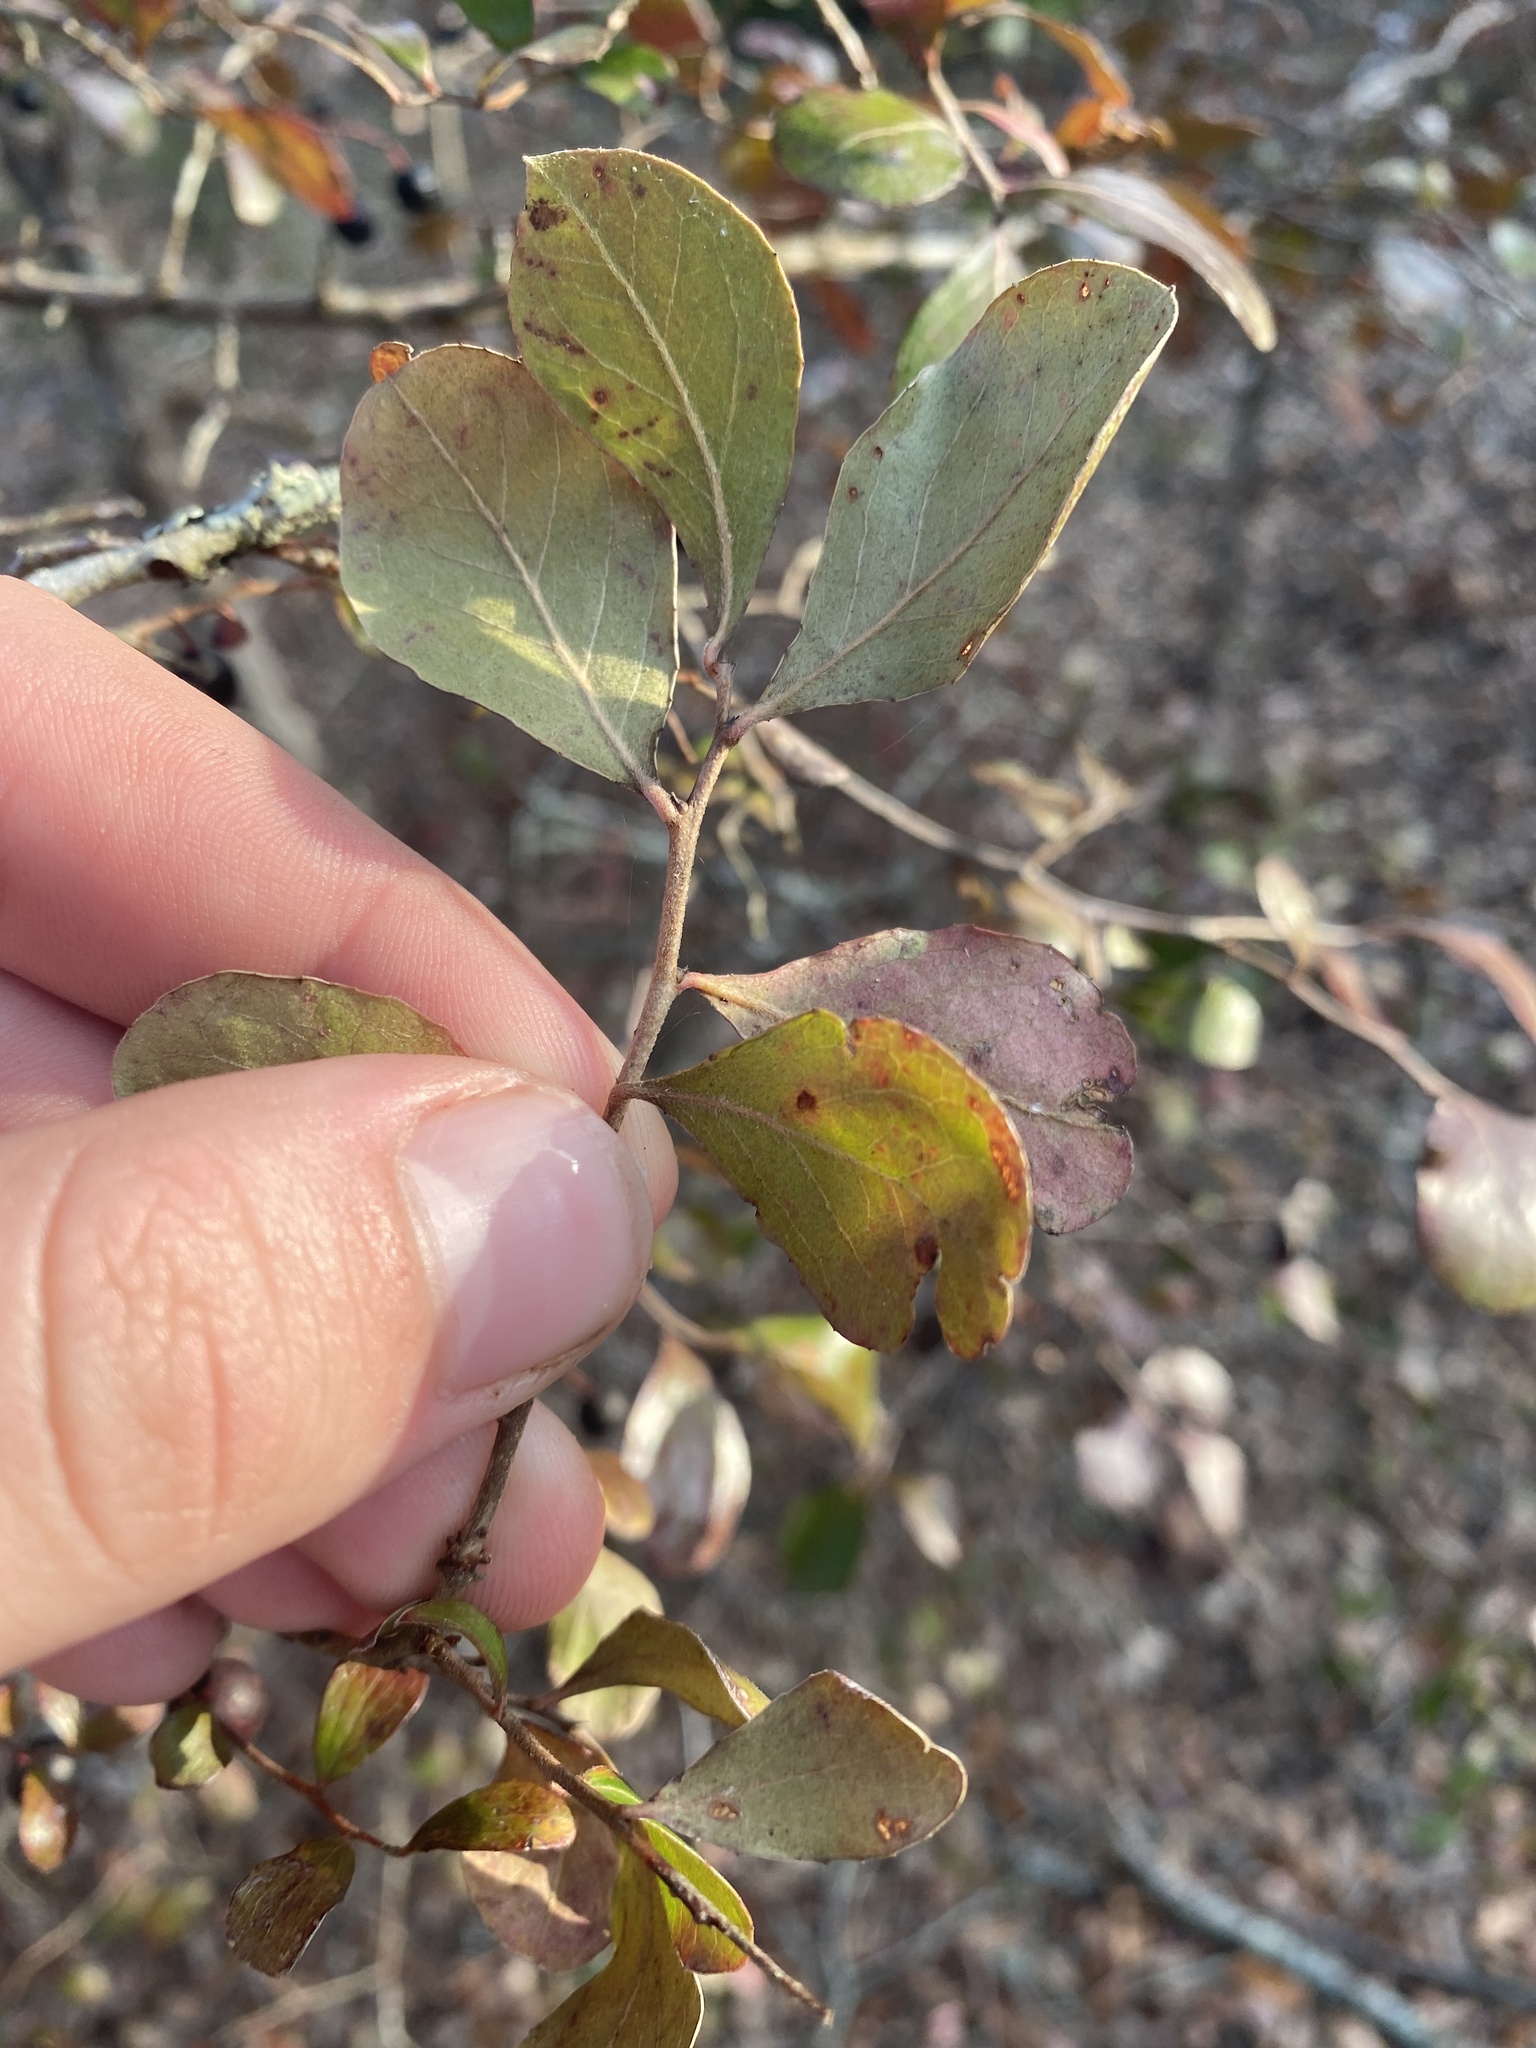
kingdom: Plantae
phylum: Tracheophyta
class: Magnoliopsida
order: Ericales
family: Ericaceae
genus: Vaccinium
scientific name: Vaccinium arboreum
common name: Farkleberry
